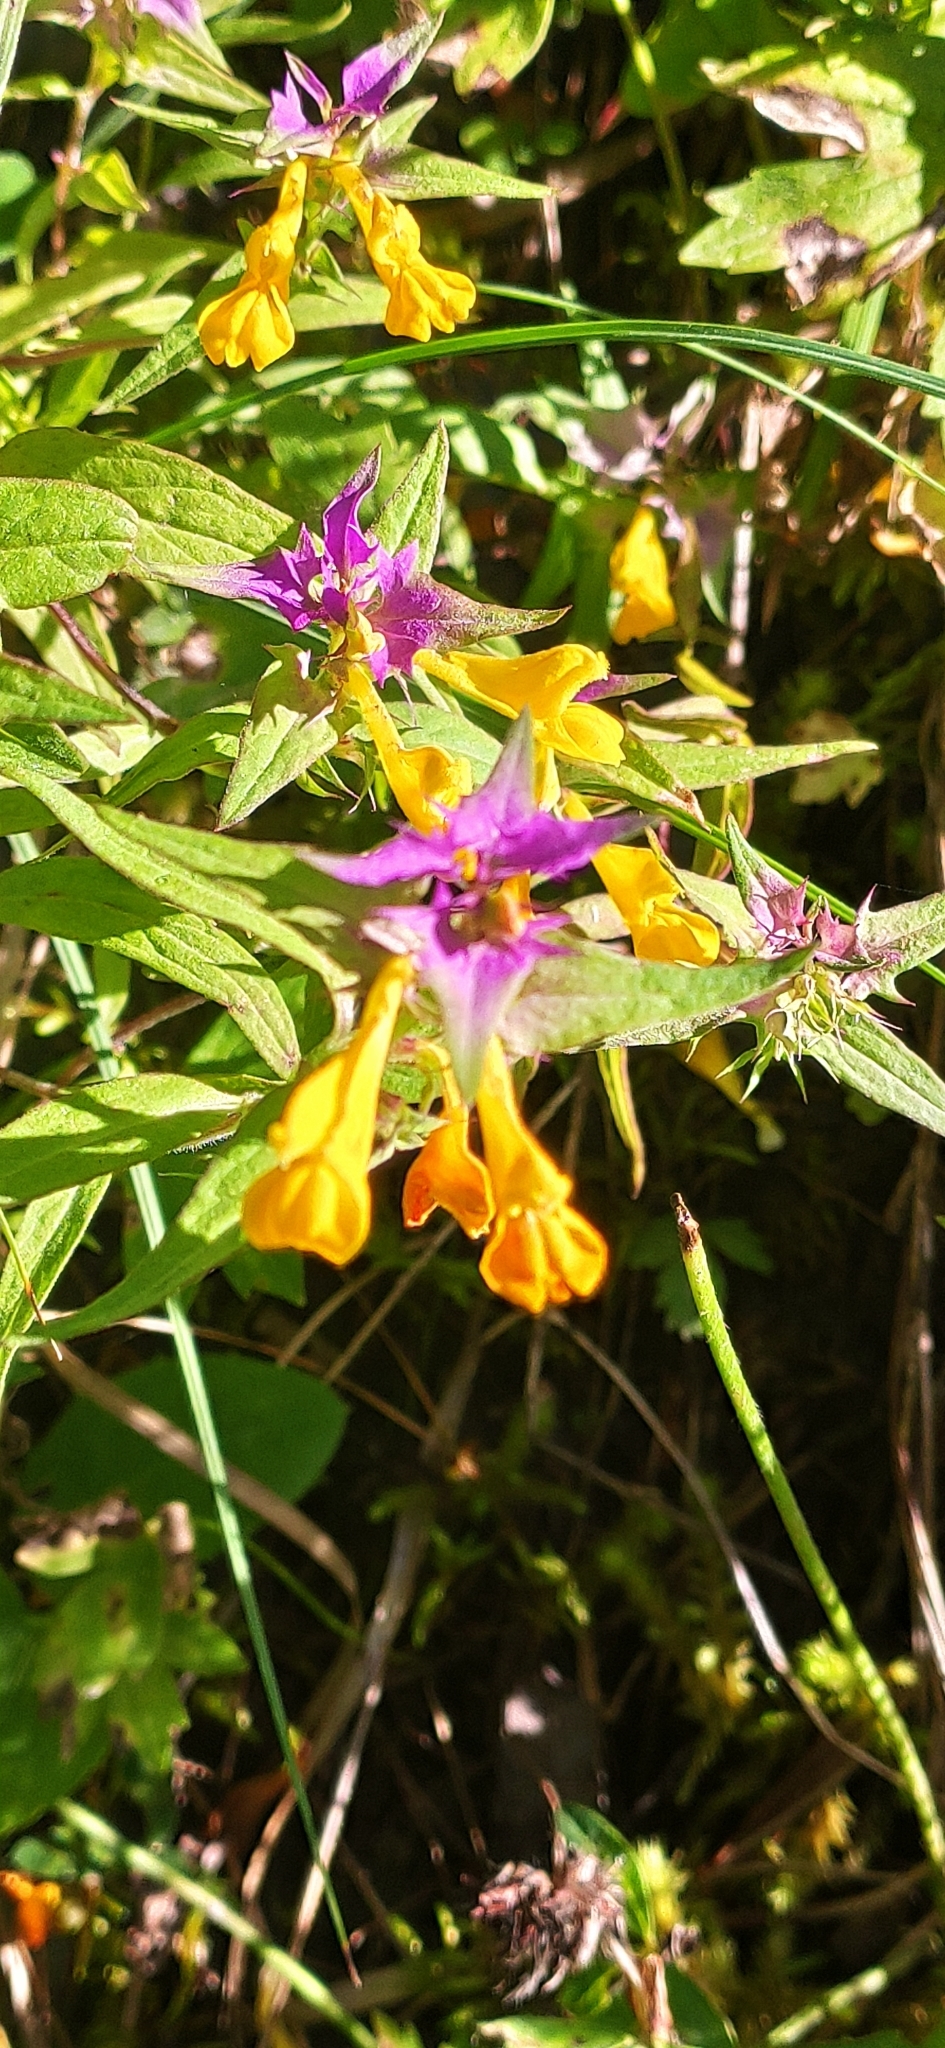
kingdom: Plantae
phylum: Tracheophyta
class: Magnoliopsida
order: Lamiales
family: Orobanchaceae
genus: Melampyrum
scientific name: Melampyrum catalaunicum
